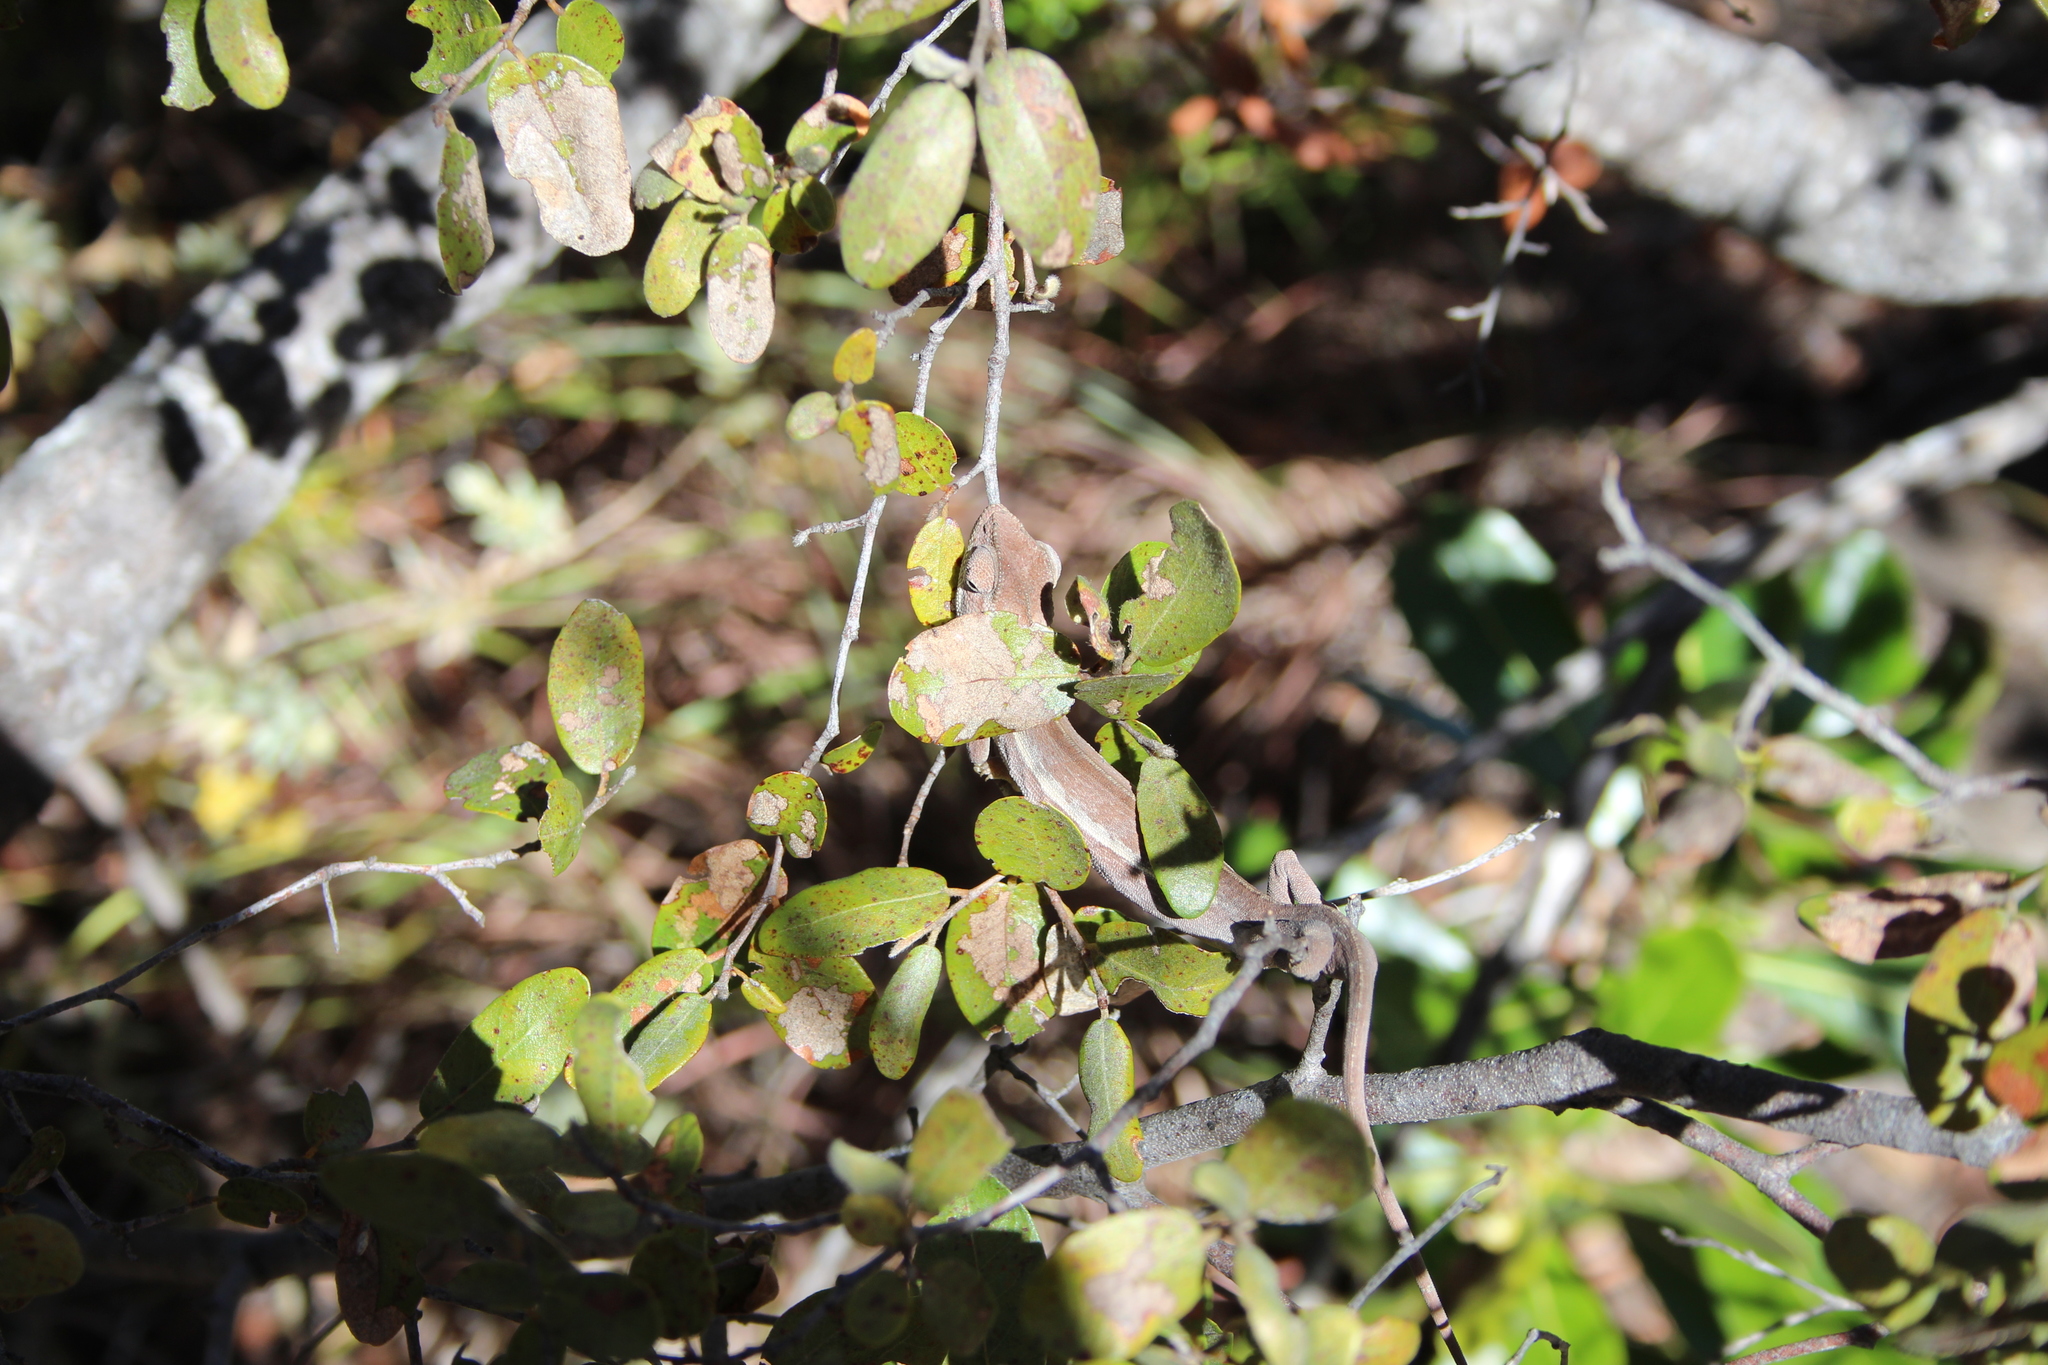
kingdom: Animalia
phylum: Chordata
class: Squamata
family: Chamaeleonidae
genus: Furcifer
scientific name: Furcifer
